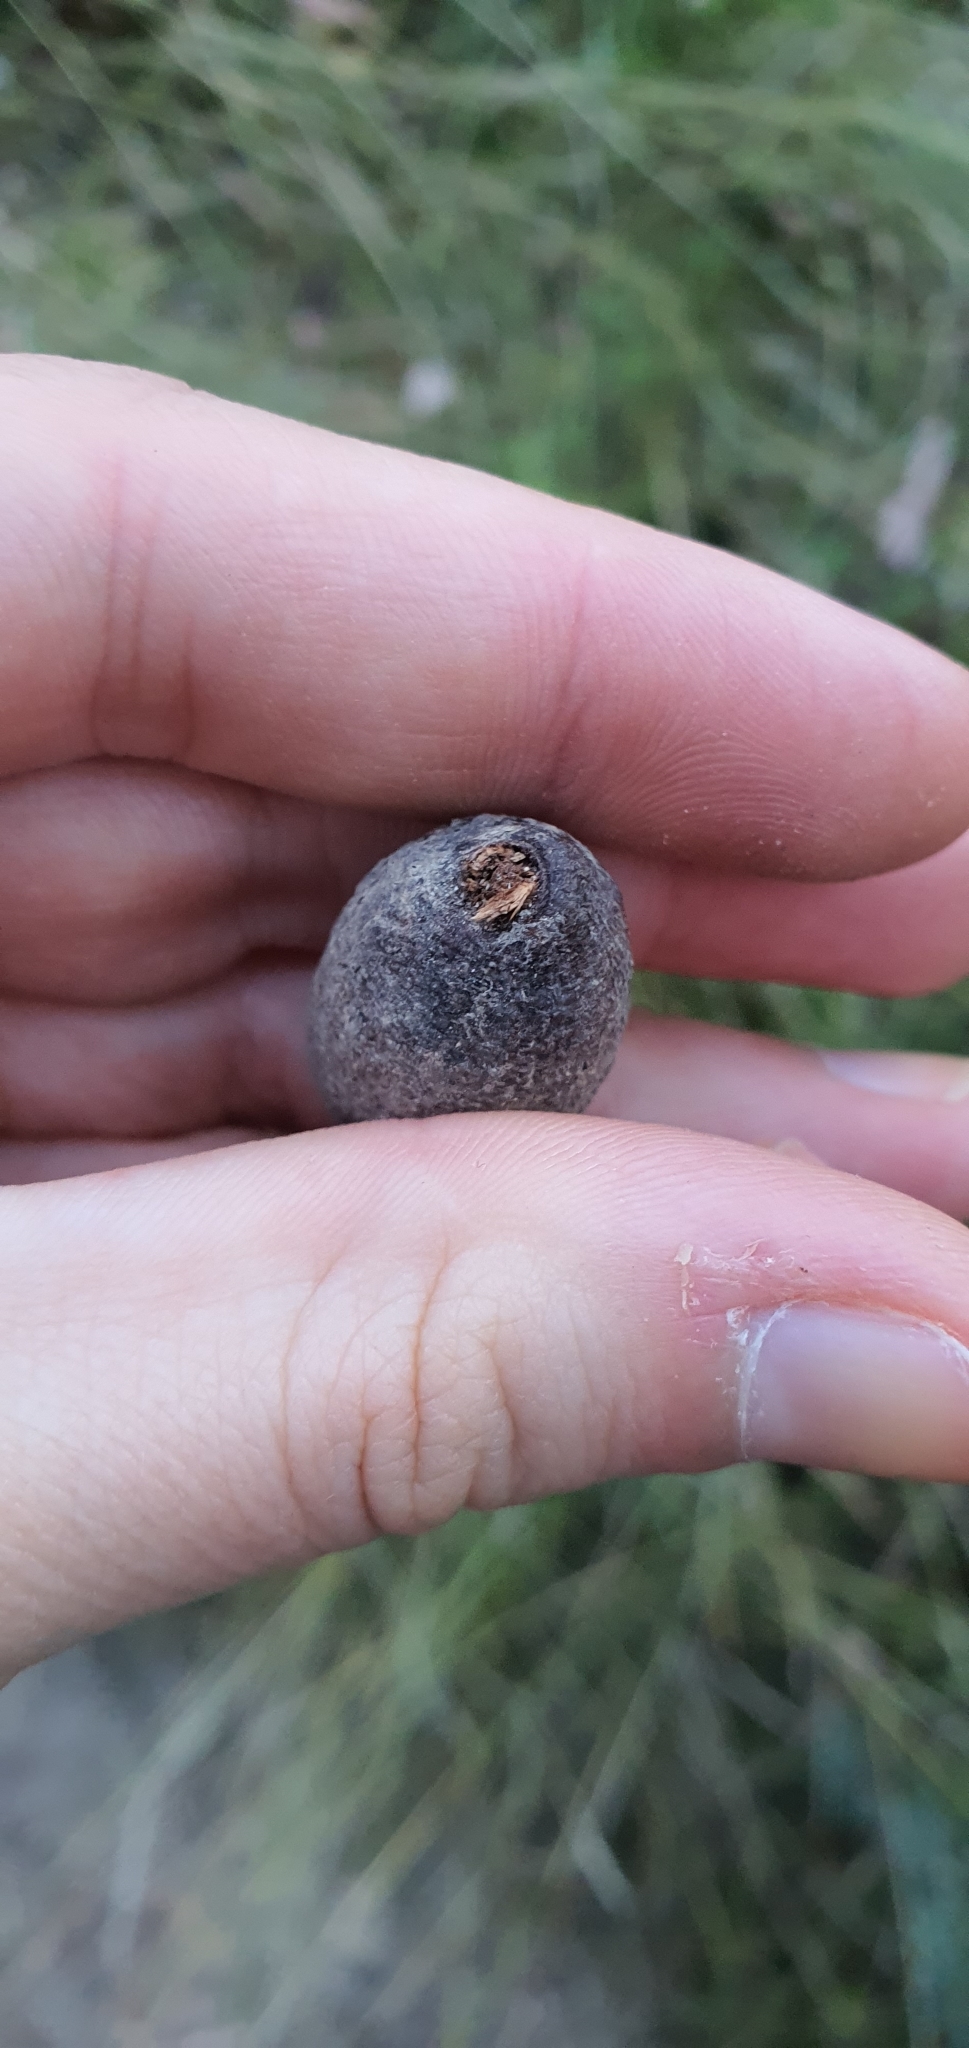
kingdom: Animalia
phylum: Arthropoda
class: Insecta
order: Hemiptera
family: Eriococcidae
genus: Apiomorpha
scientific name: Apiomorpha conica
